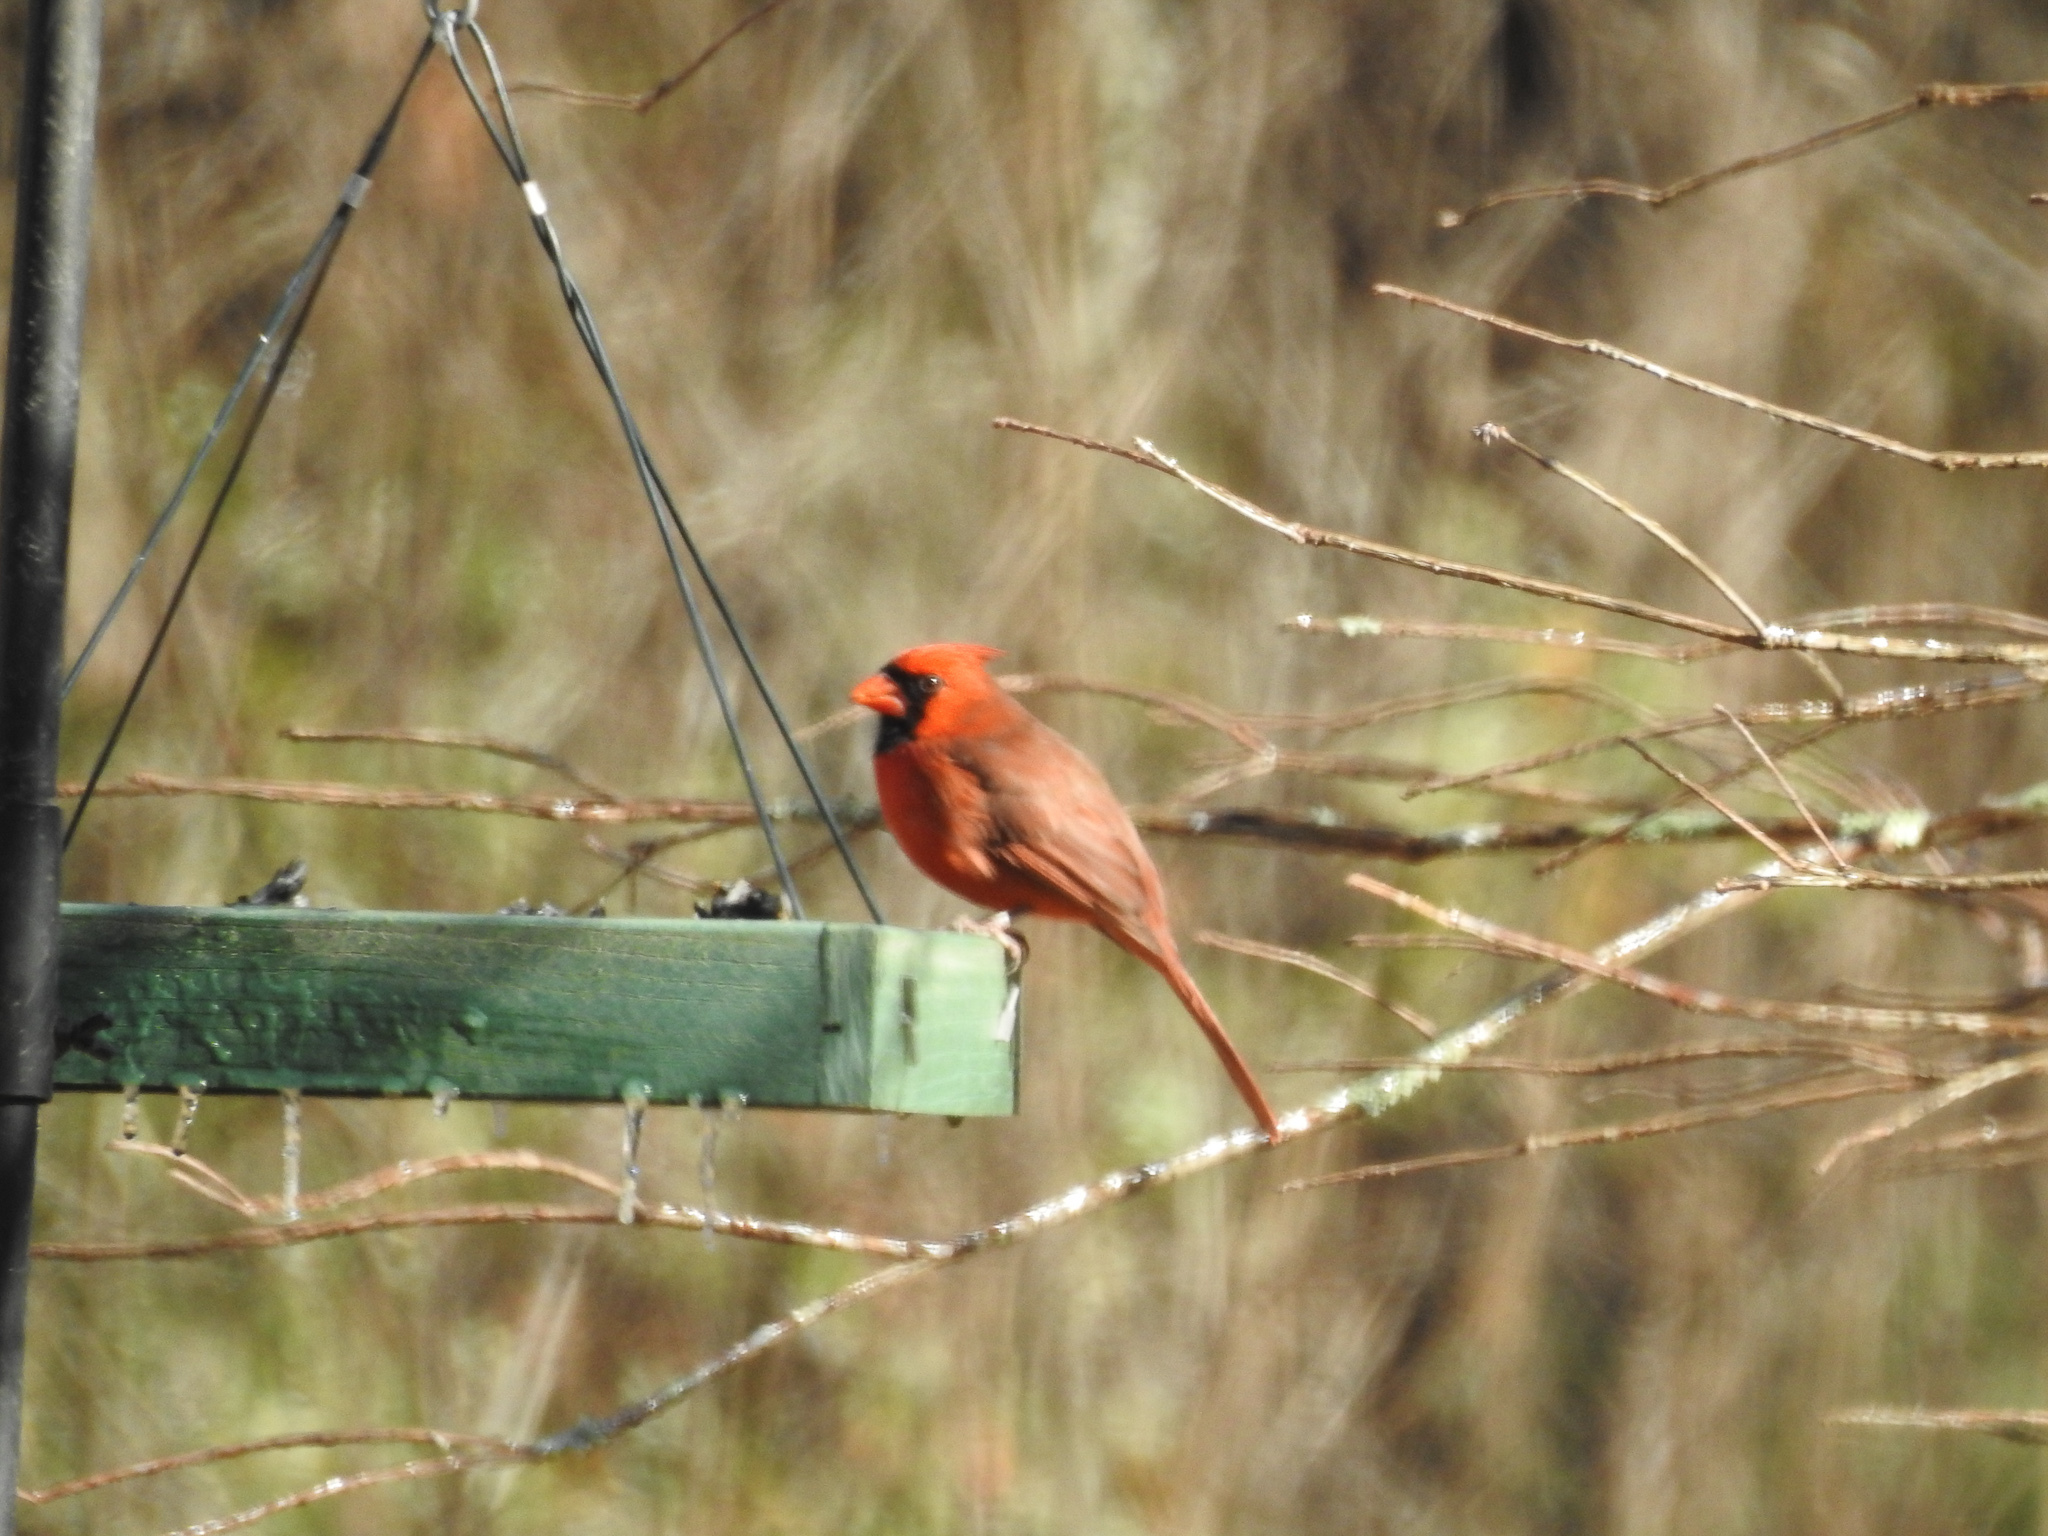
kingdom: Animalia
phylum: Chordata
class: Aves
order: Passeriformes
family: Cardinalidae
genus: Cardinalis
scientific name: Cardinalis cardinalis
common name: Northern cardinal
